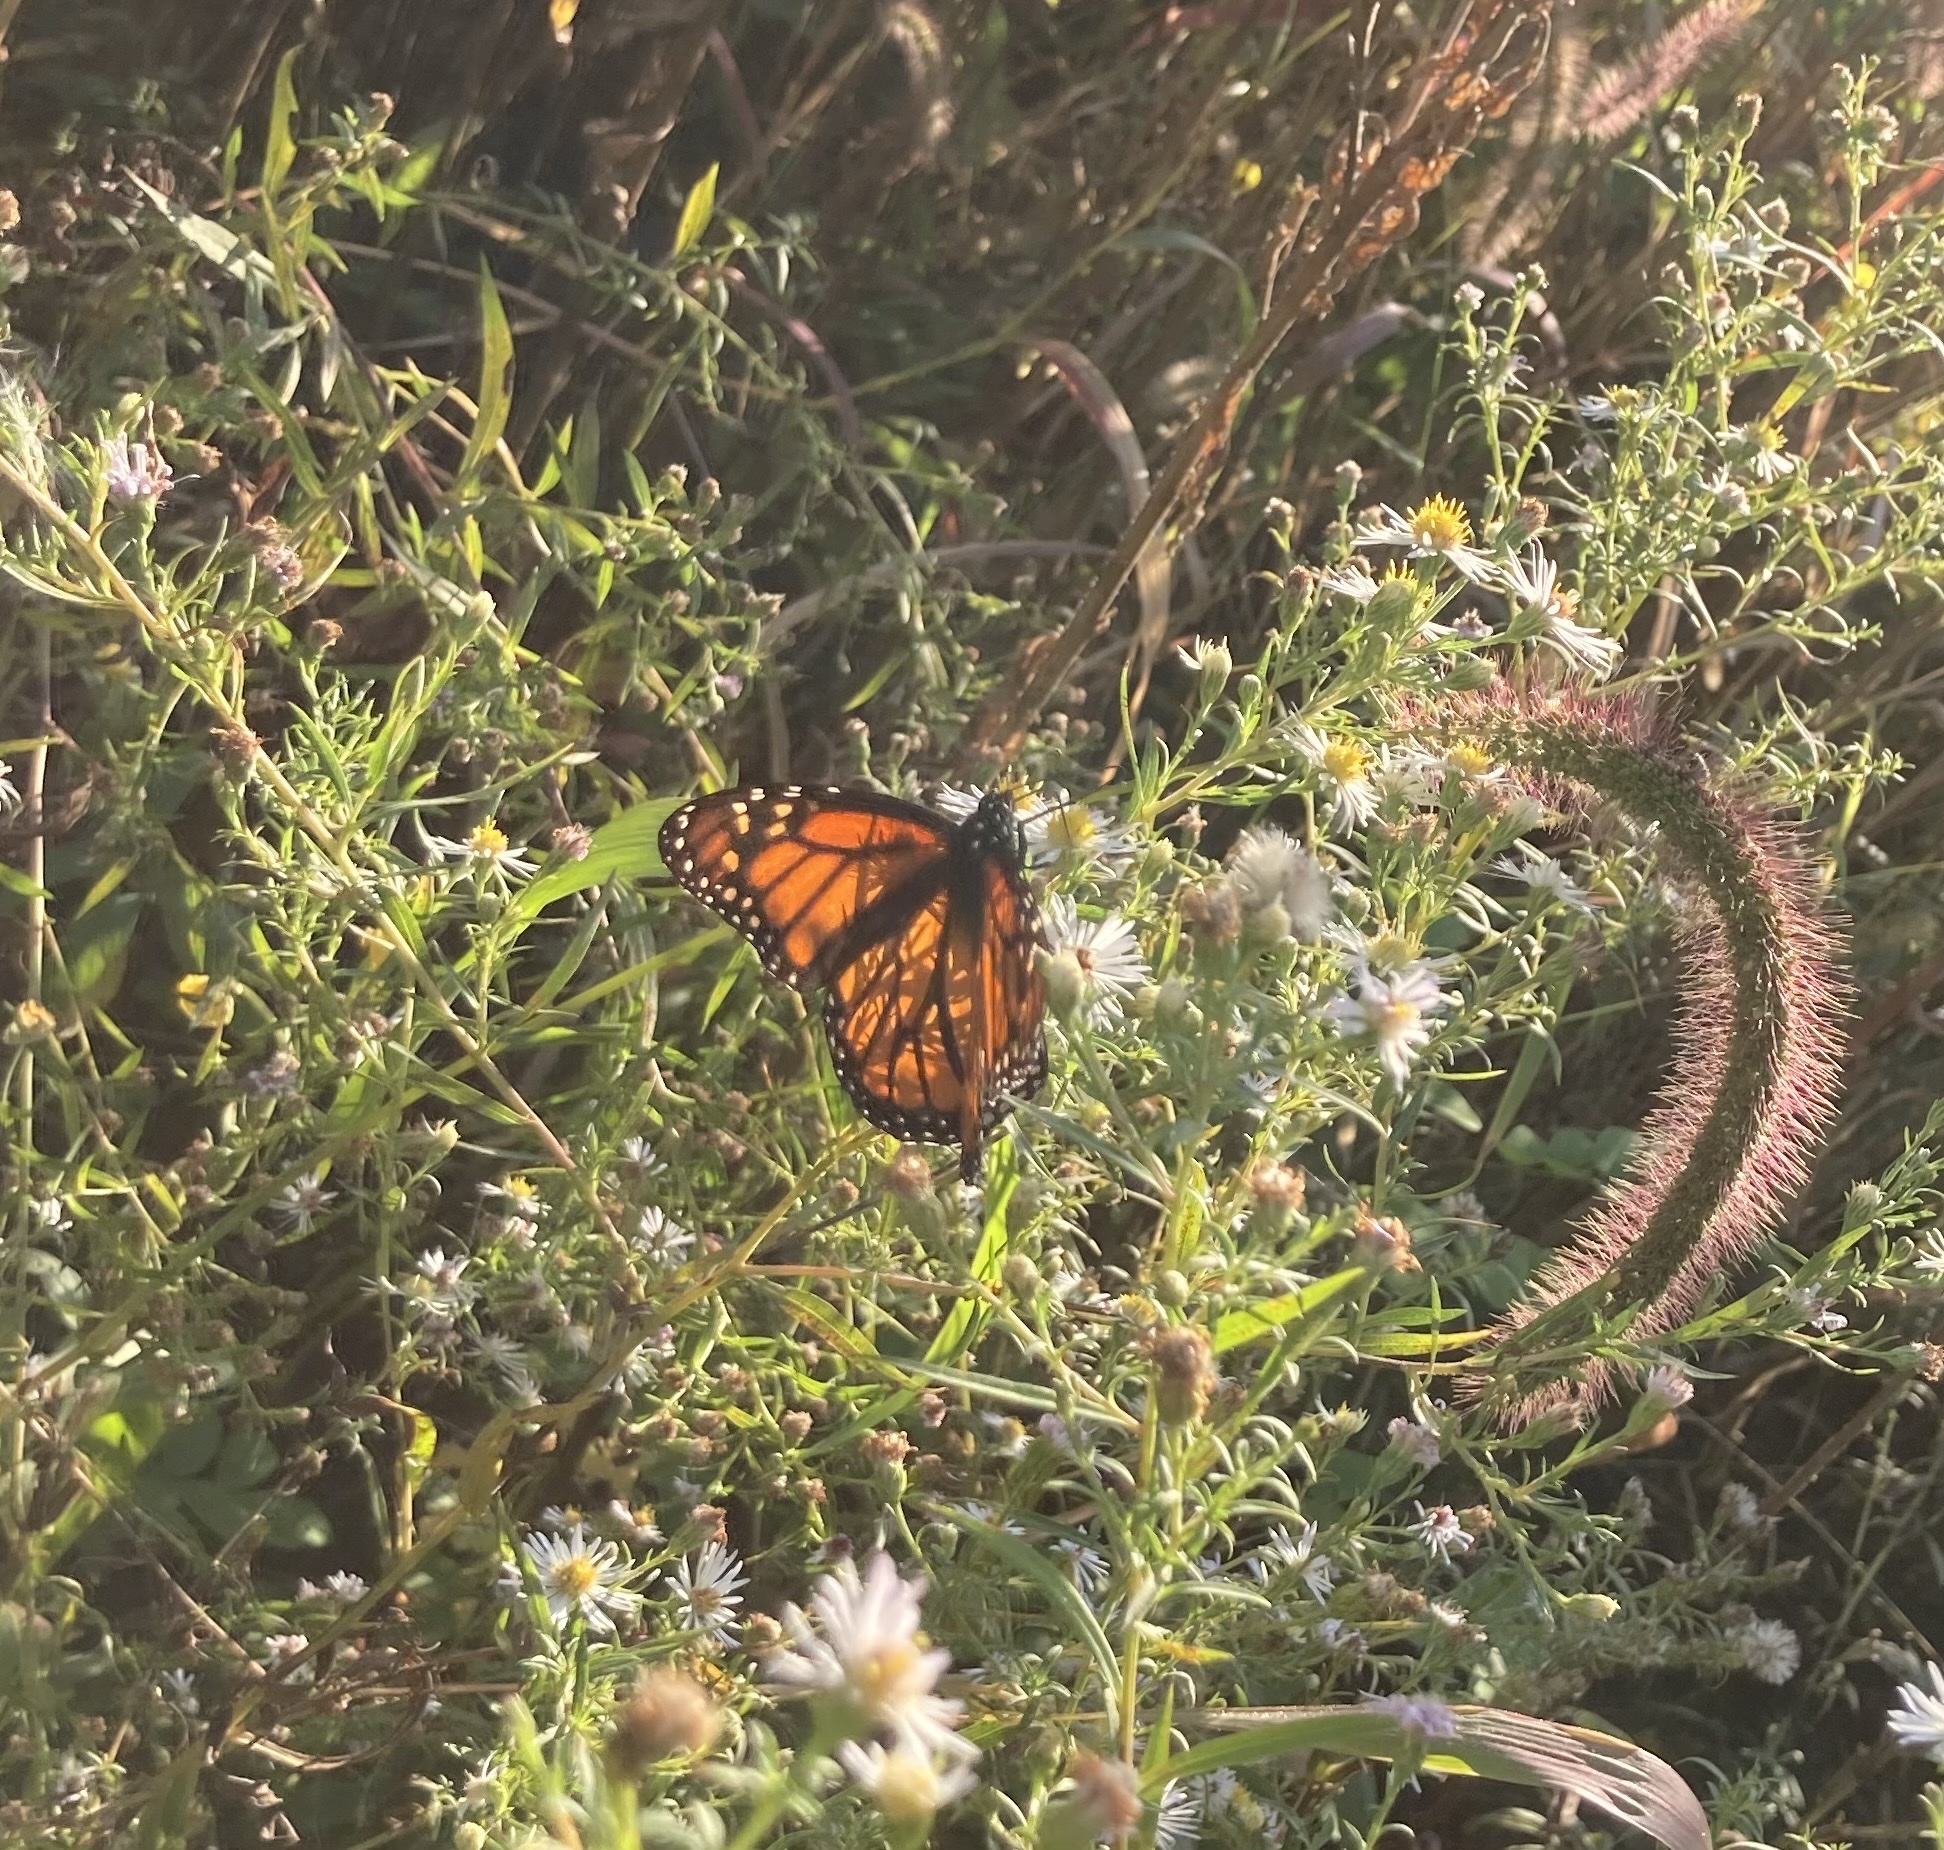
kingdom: Animalia
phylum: Arthropoda
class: Insecta
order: Lepidoptera
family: Nymphalidae
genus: Danaus
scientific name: Danaus plexippus
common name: Monarch
